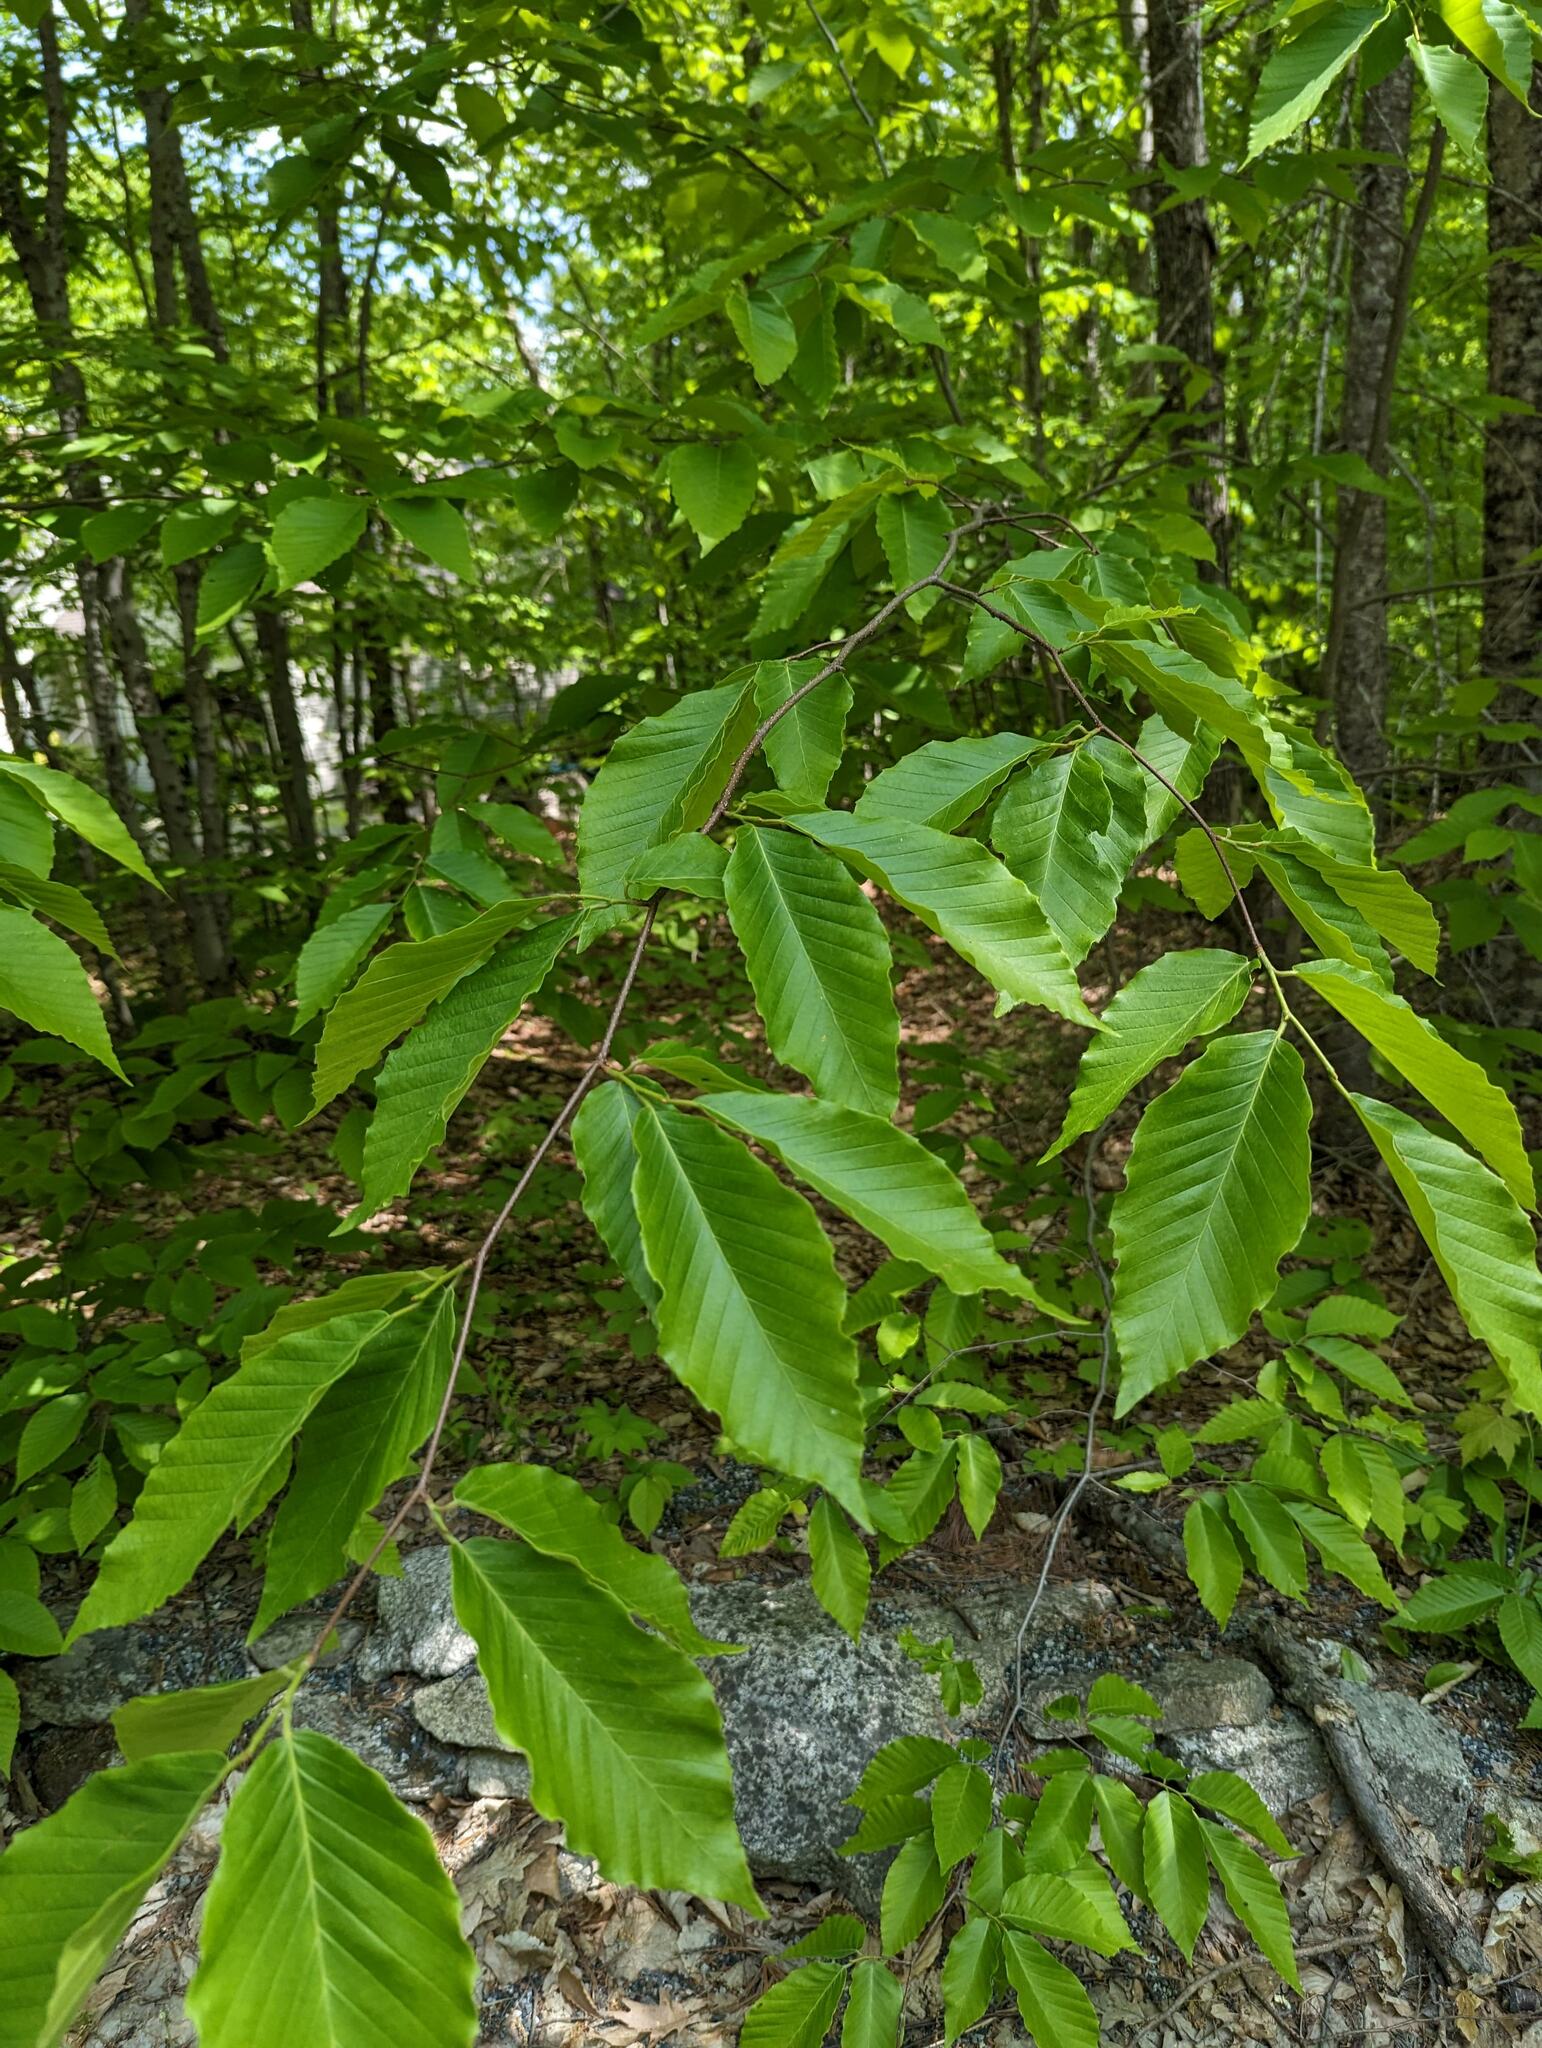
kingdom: Plantae
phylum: Tracheophyta
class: Magnoliopsida
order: Fagales
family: Fagaceae
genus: Fagus
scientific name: Fagus grandifolia
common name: American beech
